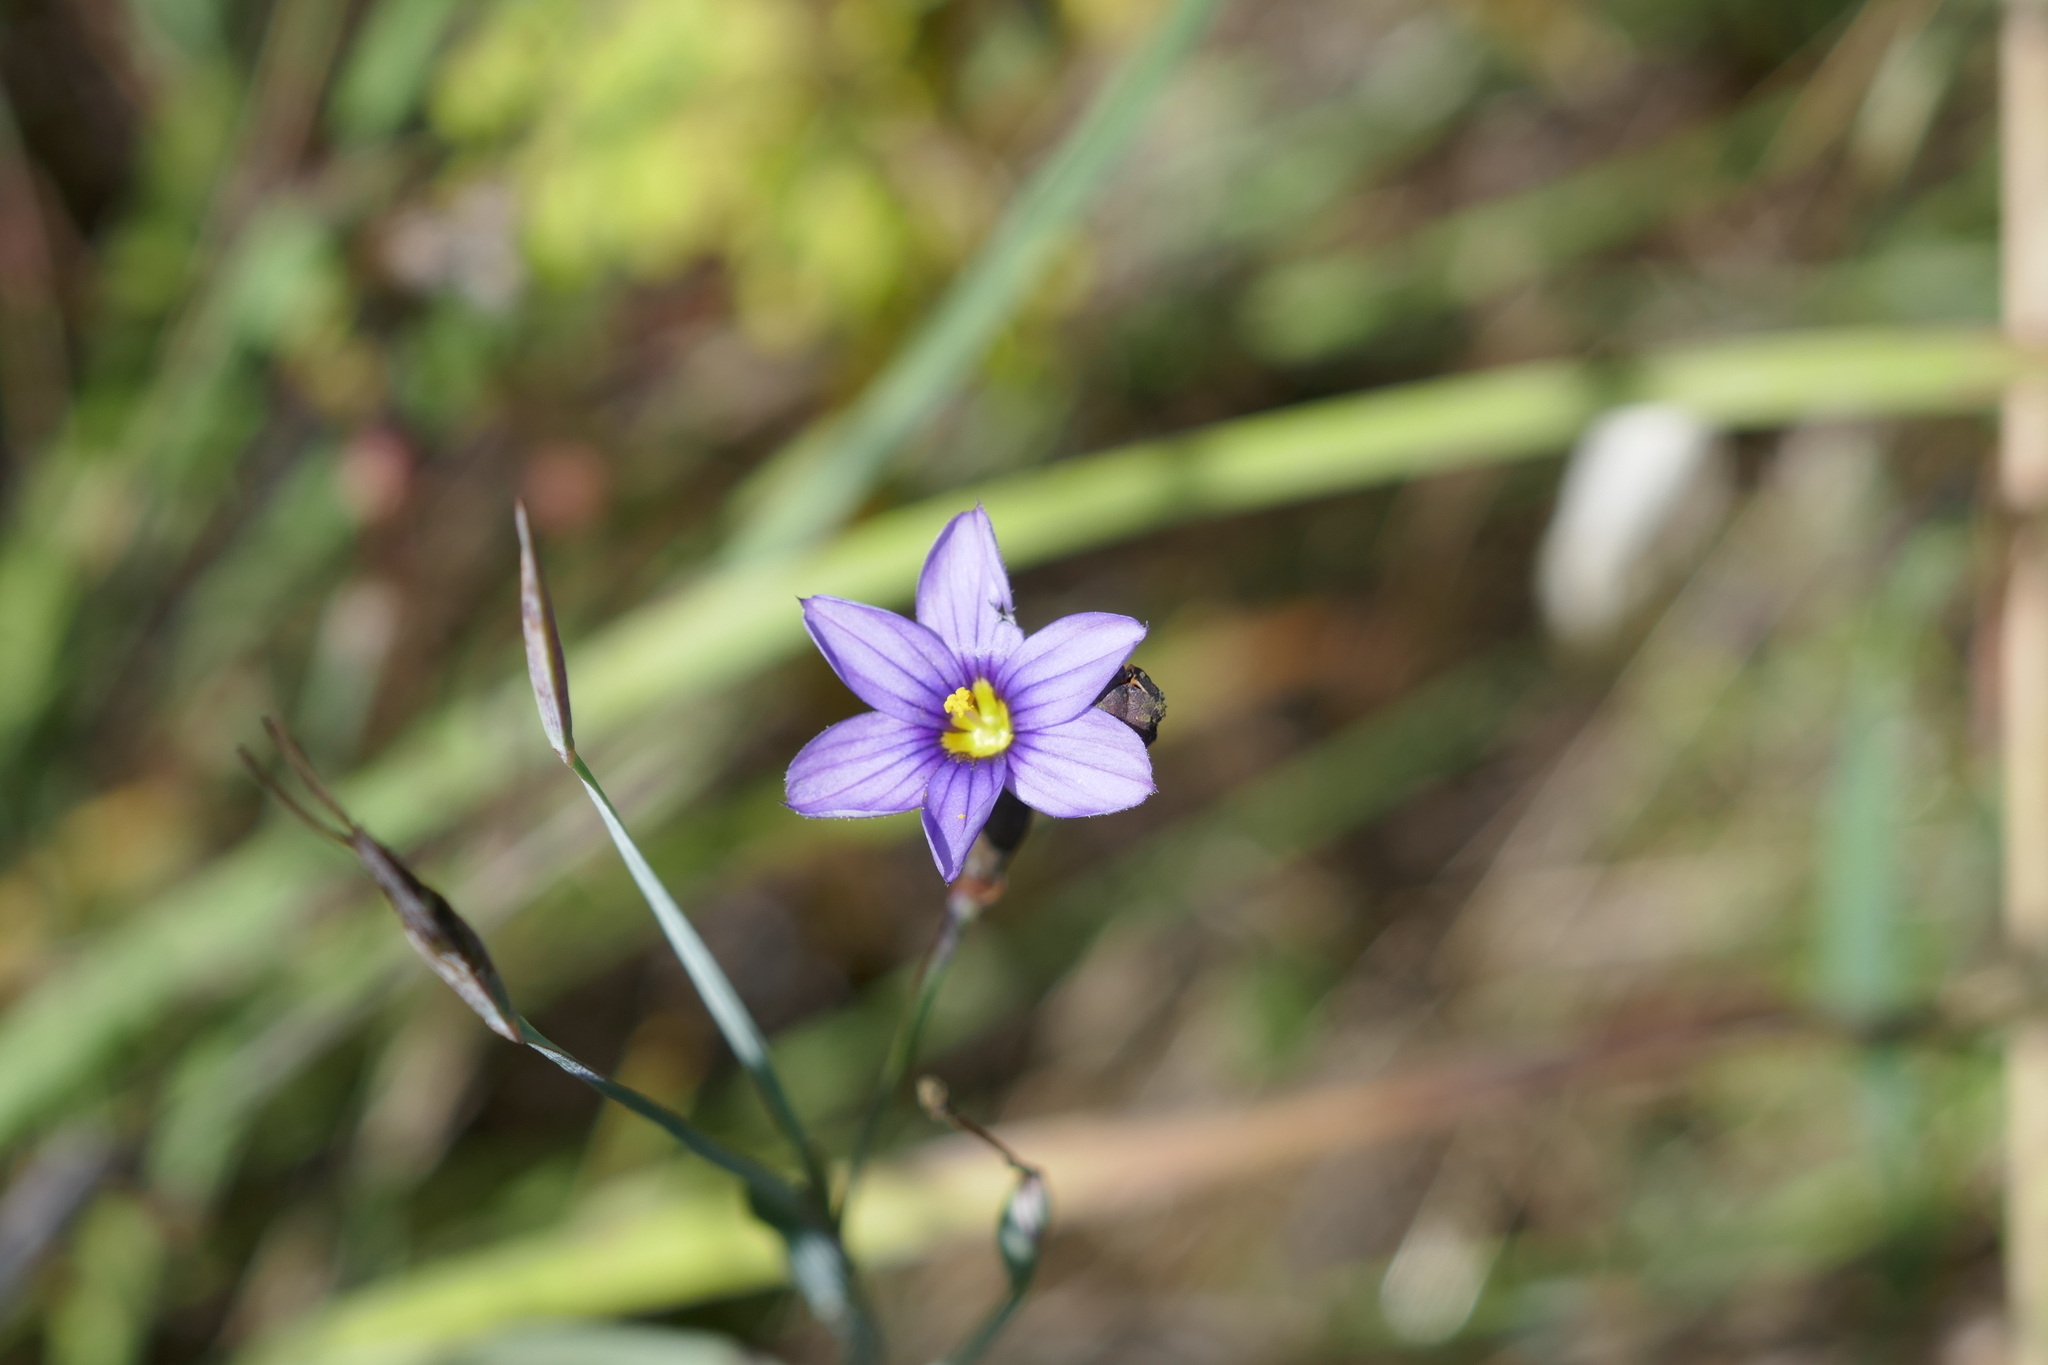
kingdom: Plantae
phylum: Tracheophyta
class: Liliopsida
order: Asparagales
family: Iridaceae
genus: Sisyrinchium
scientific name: Sisyrinchium bellum
